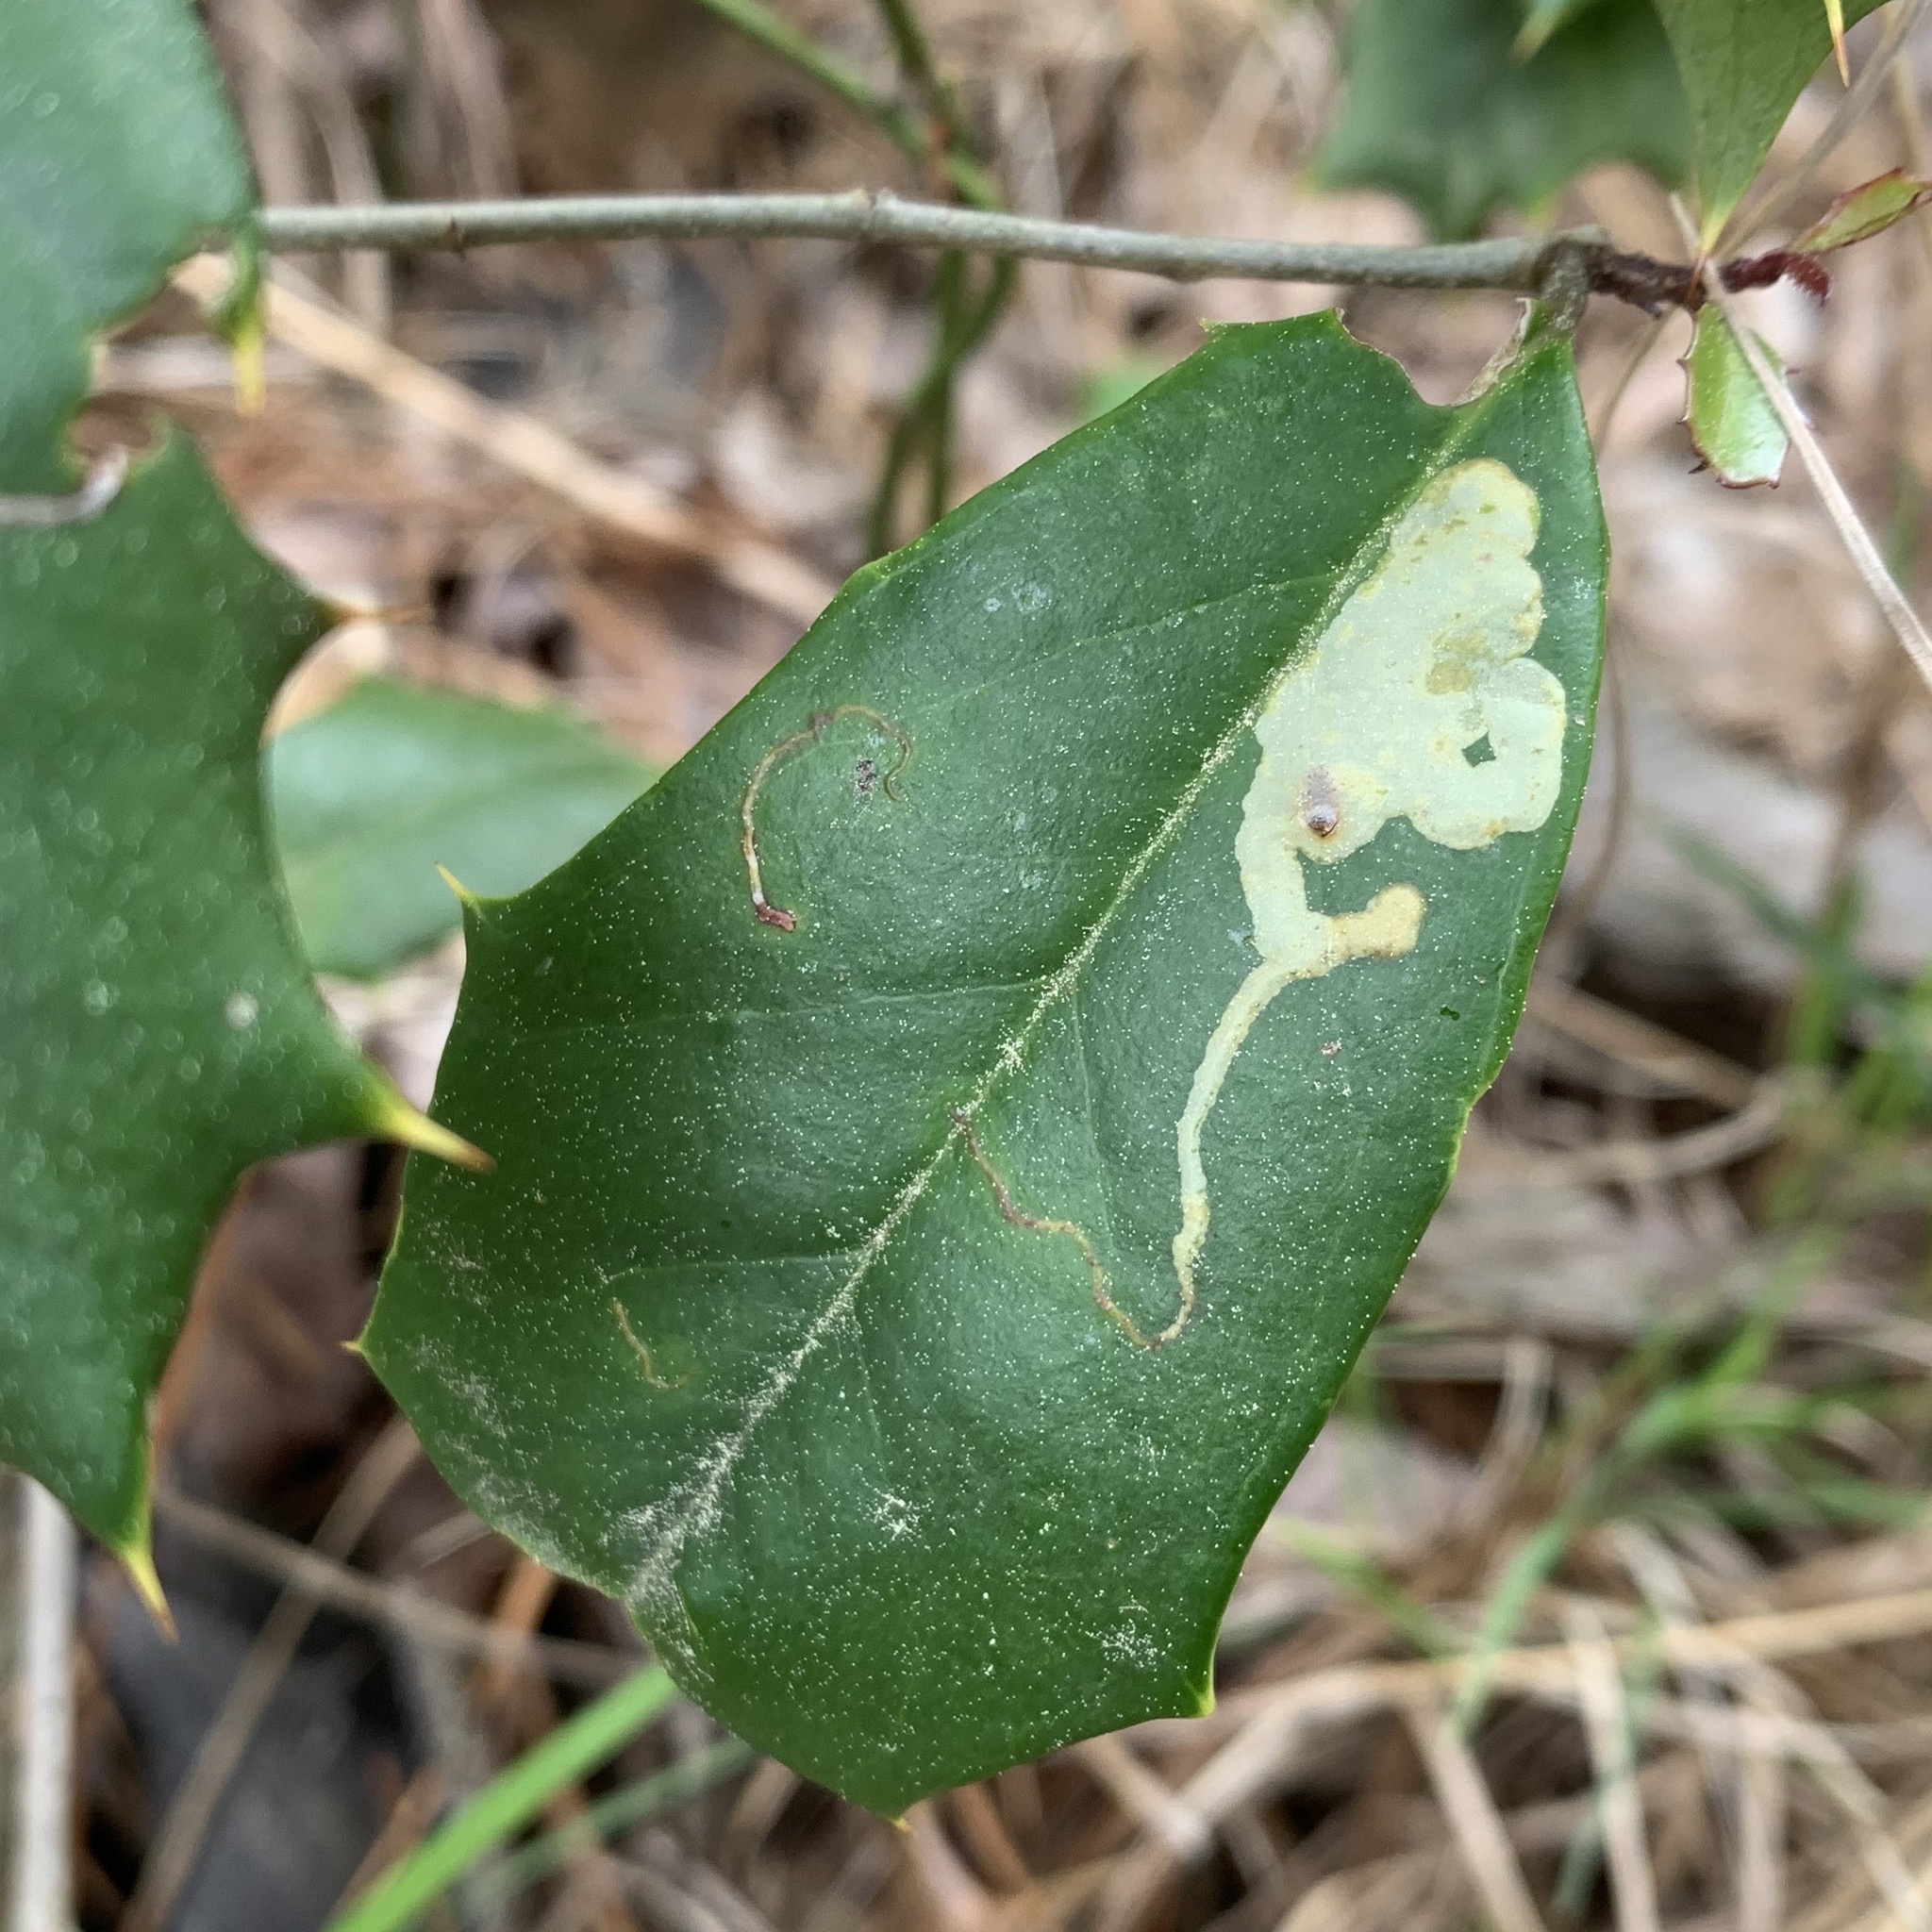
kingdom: Animalia
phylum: Arthropoda
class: Insecta
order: Diptera
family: Agromyzidae
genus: Phytomyza
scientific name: Phytomyza ilicicola
